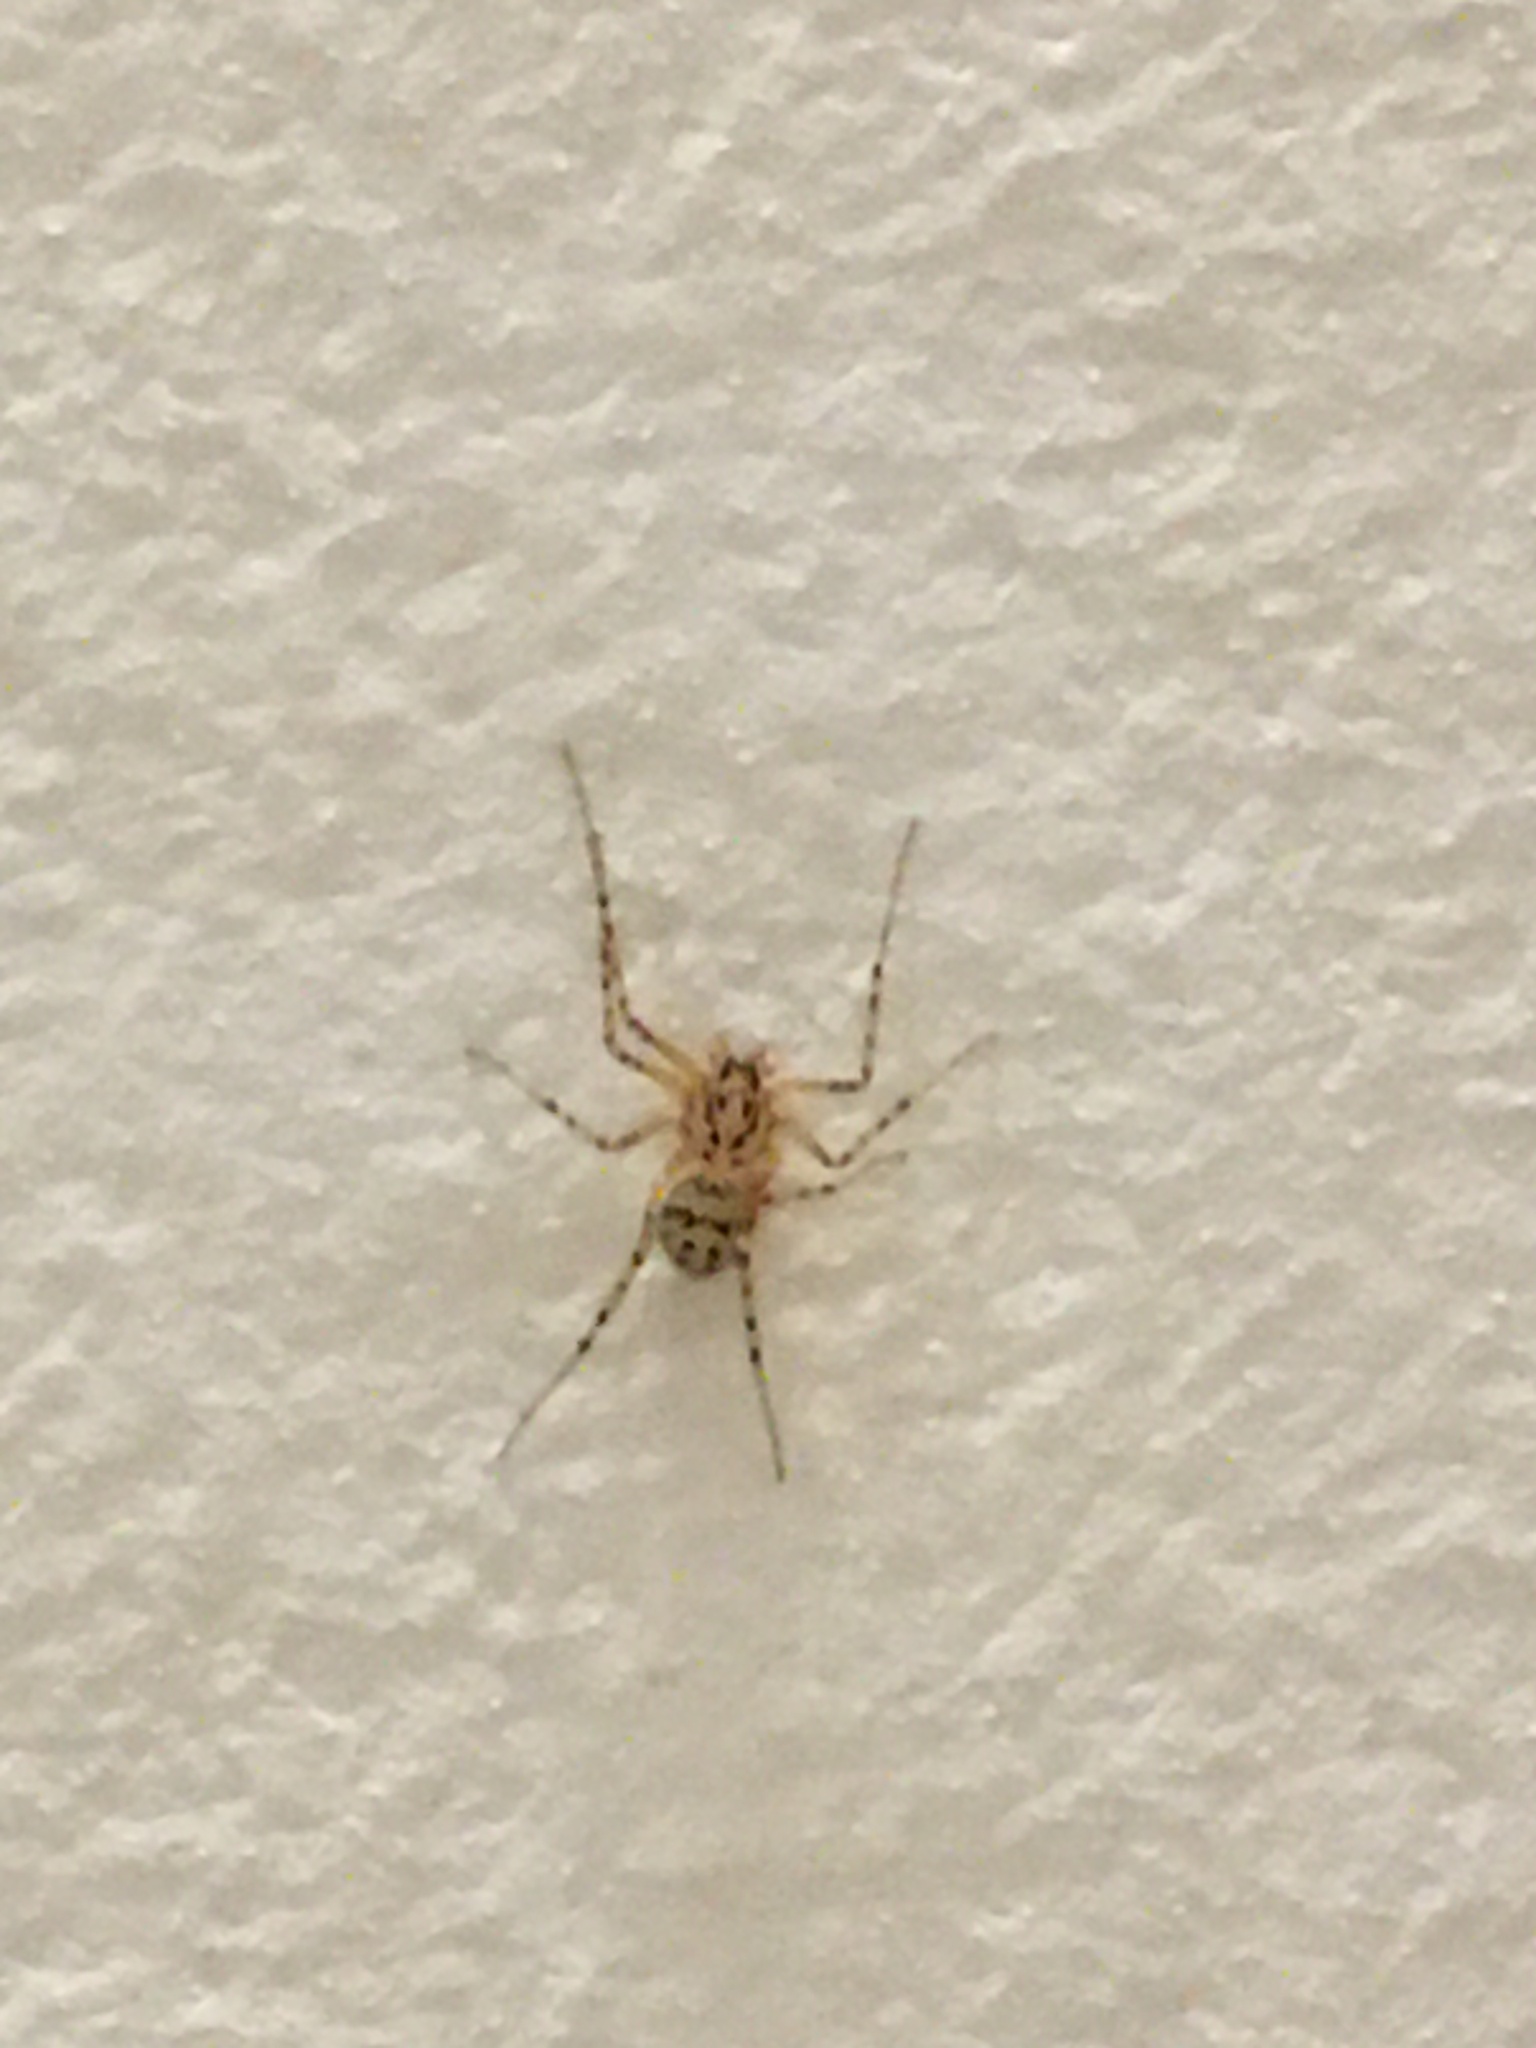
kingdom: Animalia
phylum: Arthropoda
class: Arachnida
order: Araneae
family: Scytodidae
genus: Scytodes
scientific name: Scytodes thoracica
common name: Spitting spider
